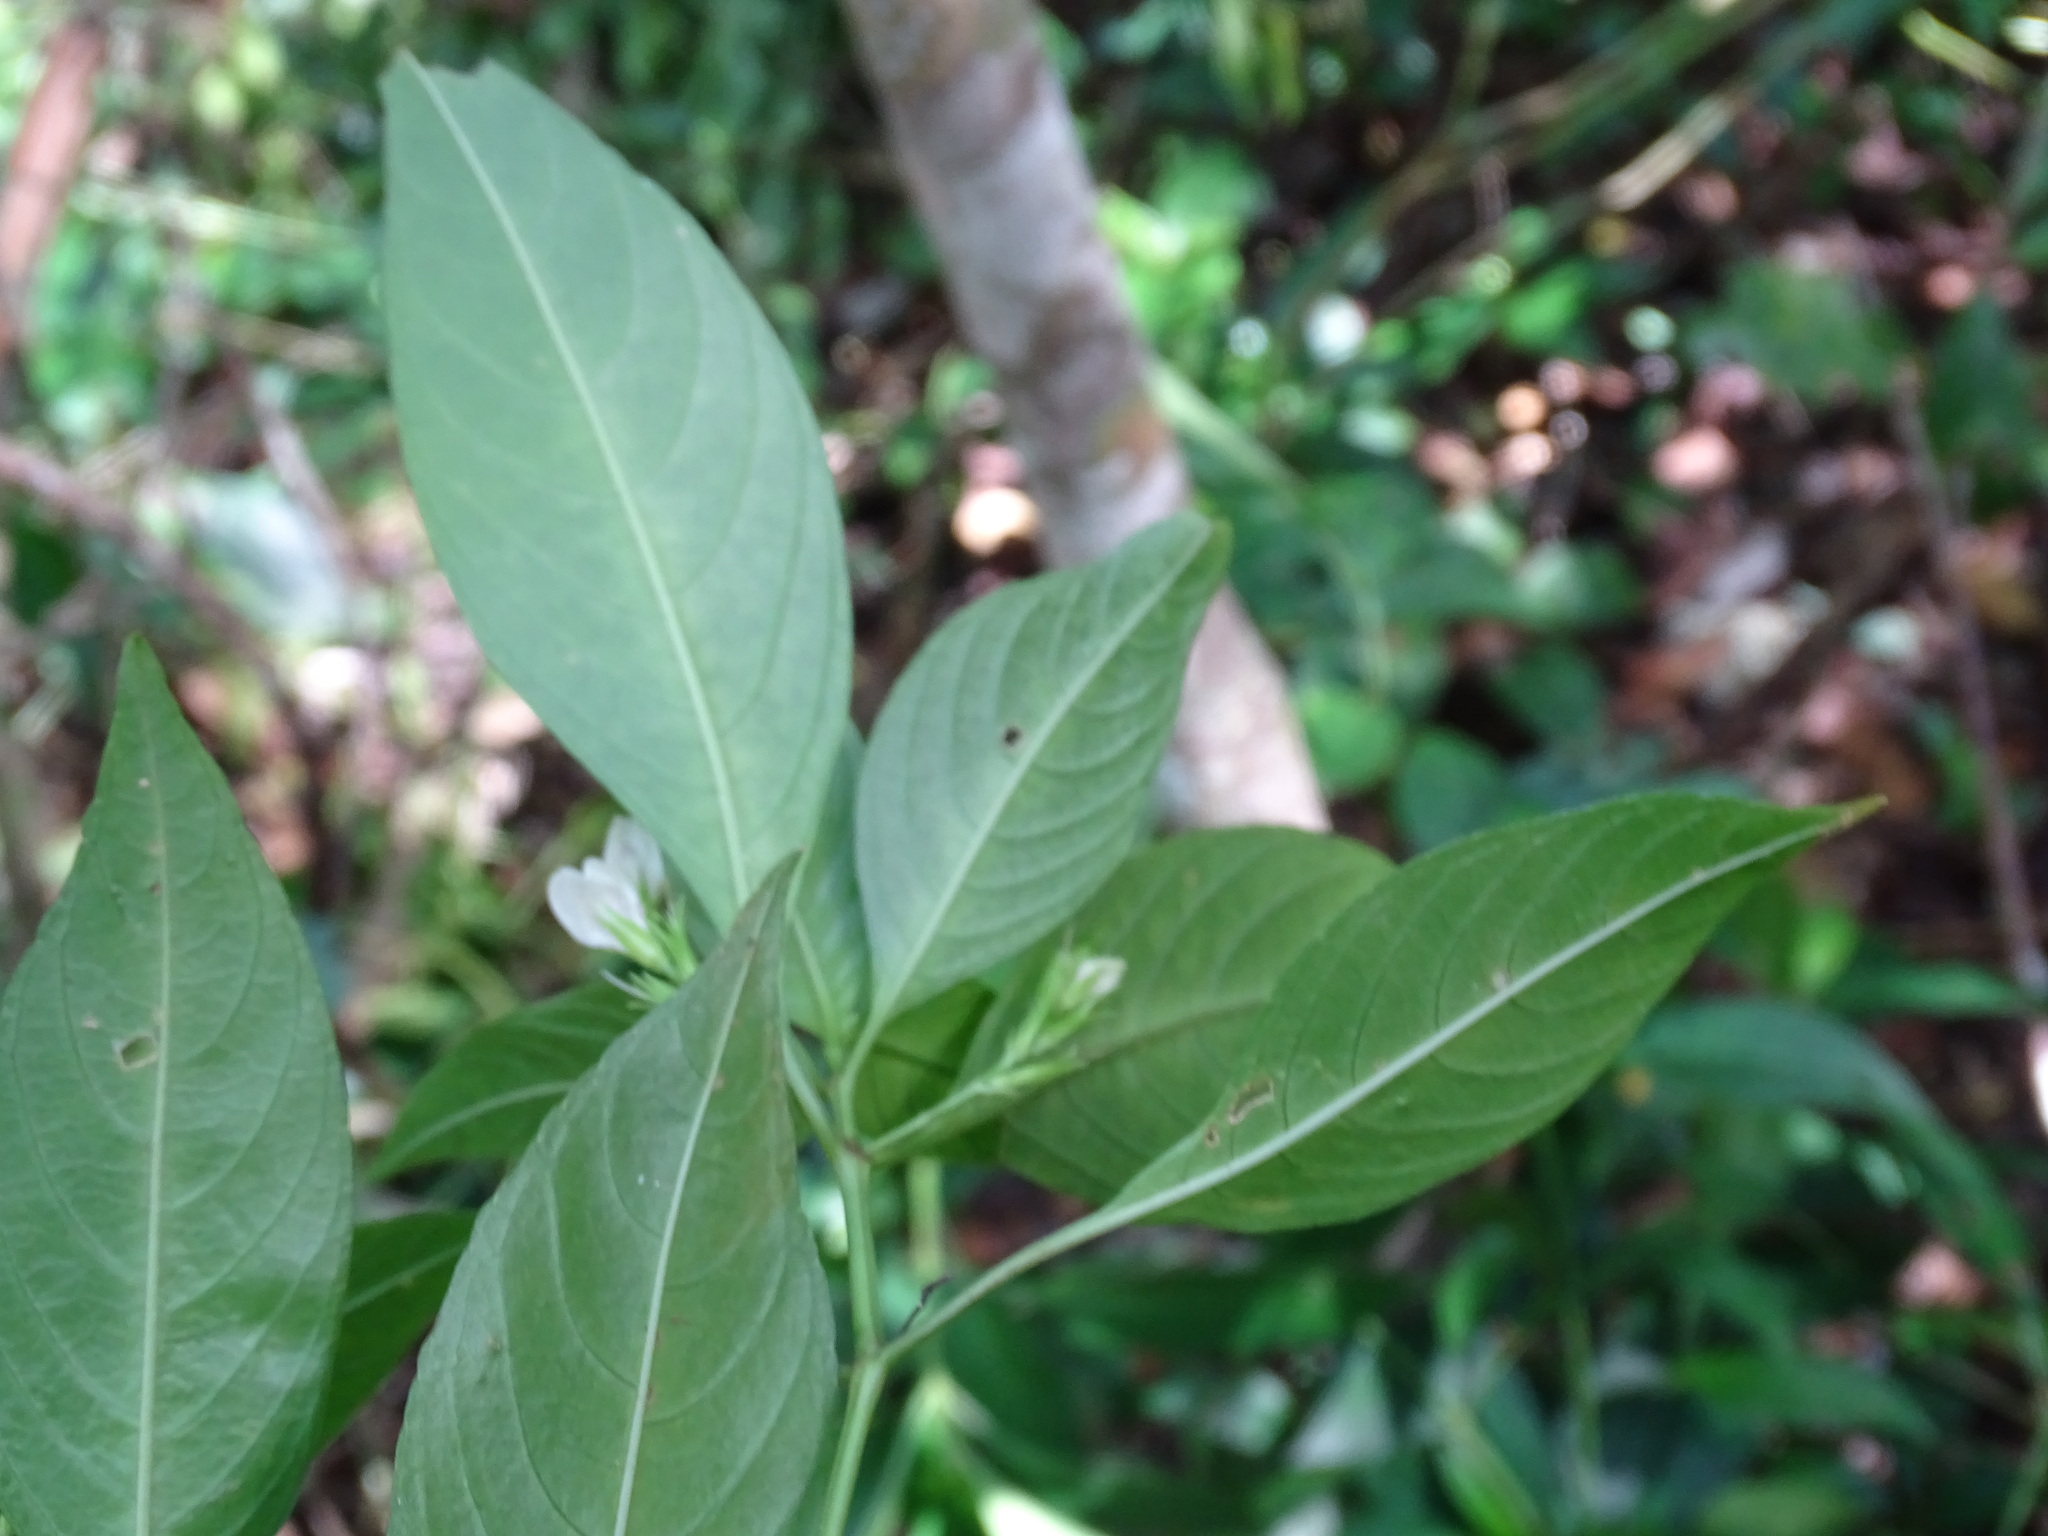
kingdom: Plantae
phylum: Tracheophyta
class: Magnoliopsida
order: Lamiales
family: Acanthaceae
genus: Justicia
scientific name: Justicia campechiana
